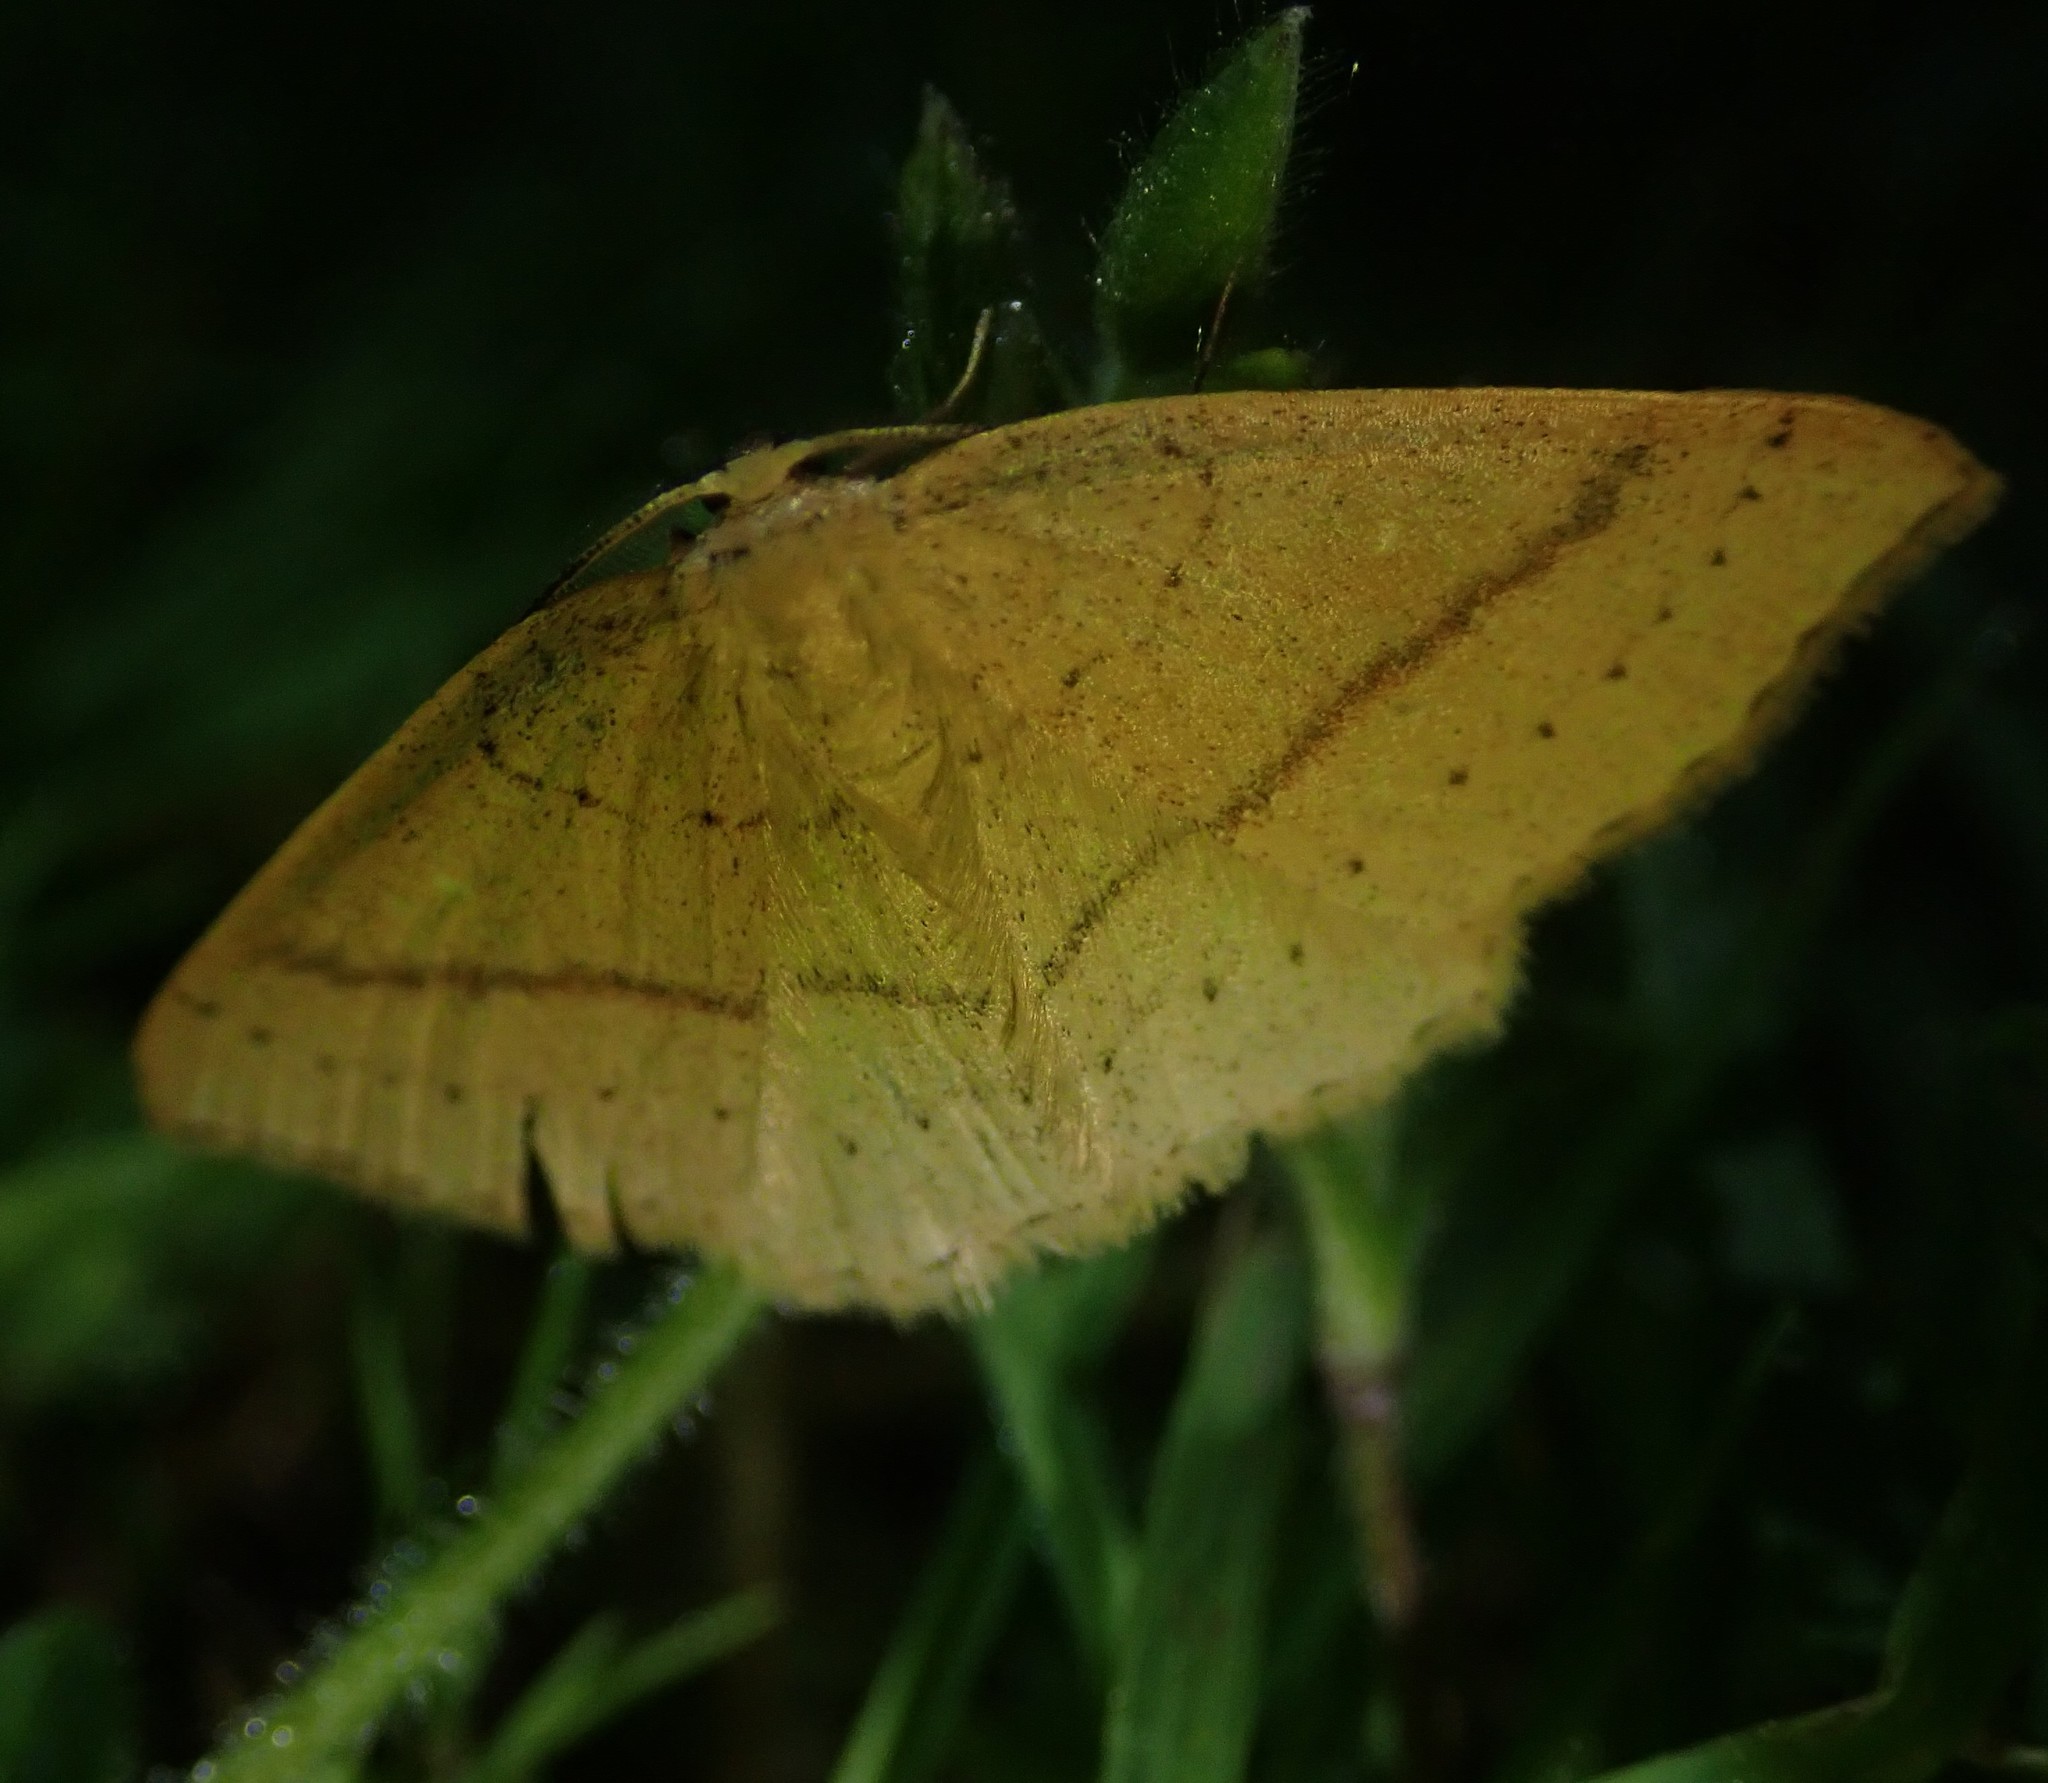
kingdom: Animalia
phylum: Arthropoda
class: Insecta
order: Lepidoptera
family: Geometridae
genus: Cyclophora
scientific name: Cyclophora linearia
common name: Clay triple-lines
